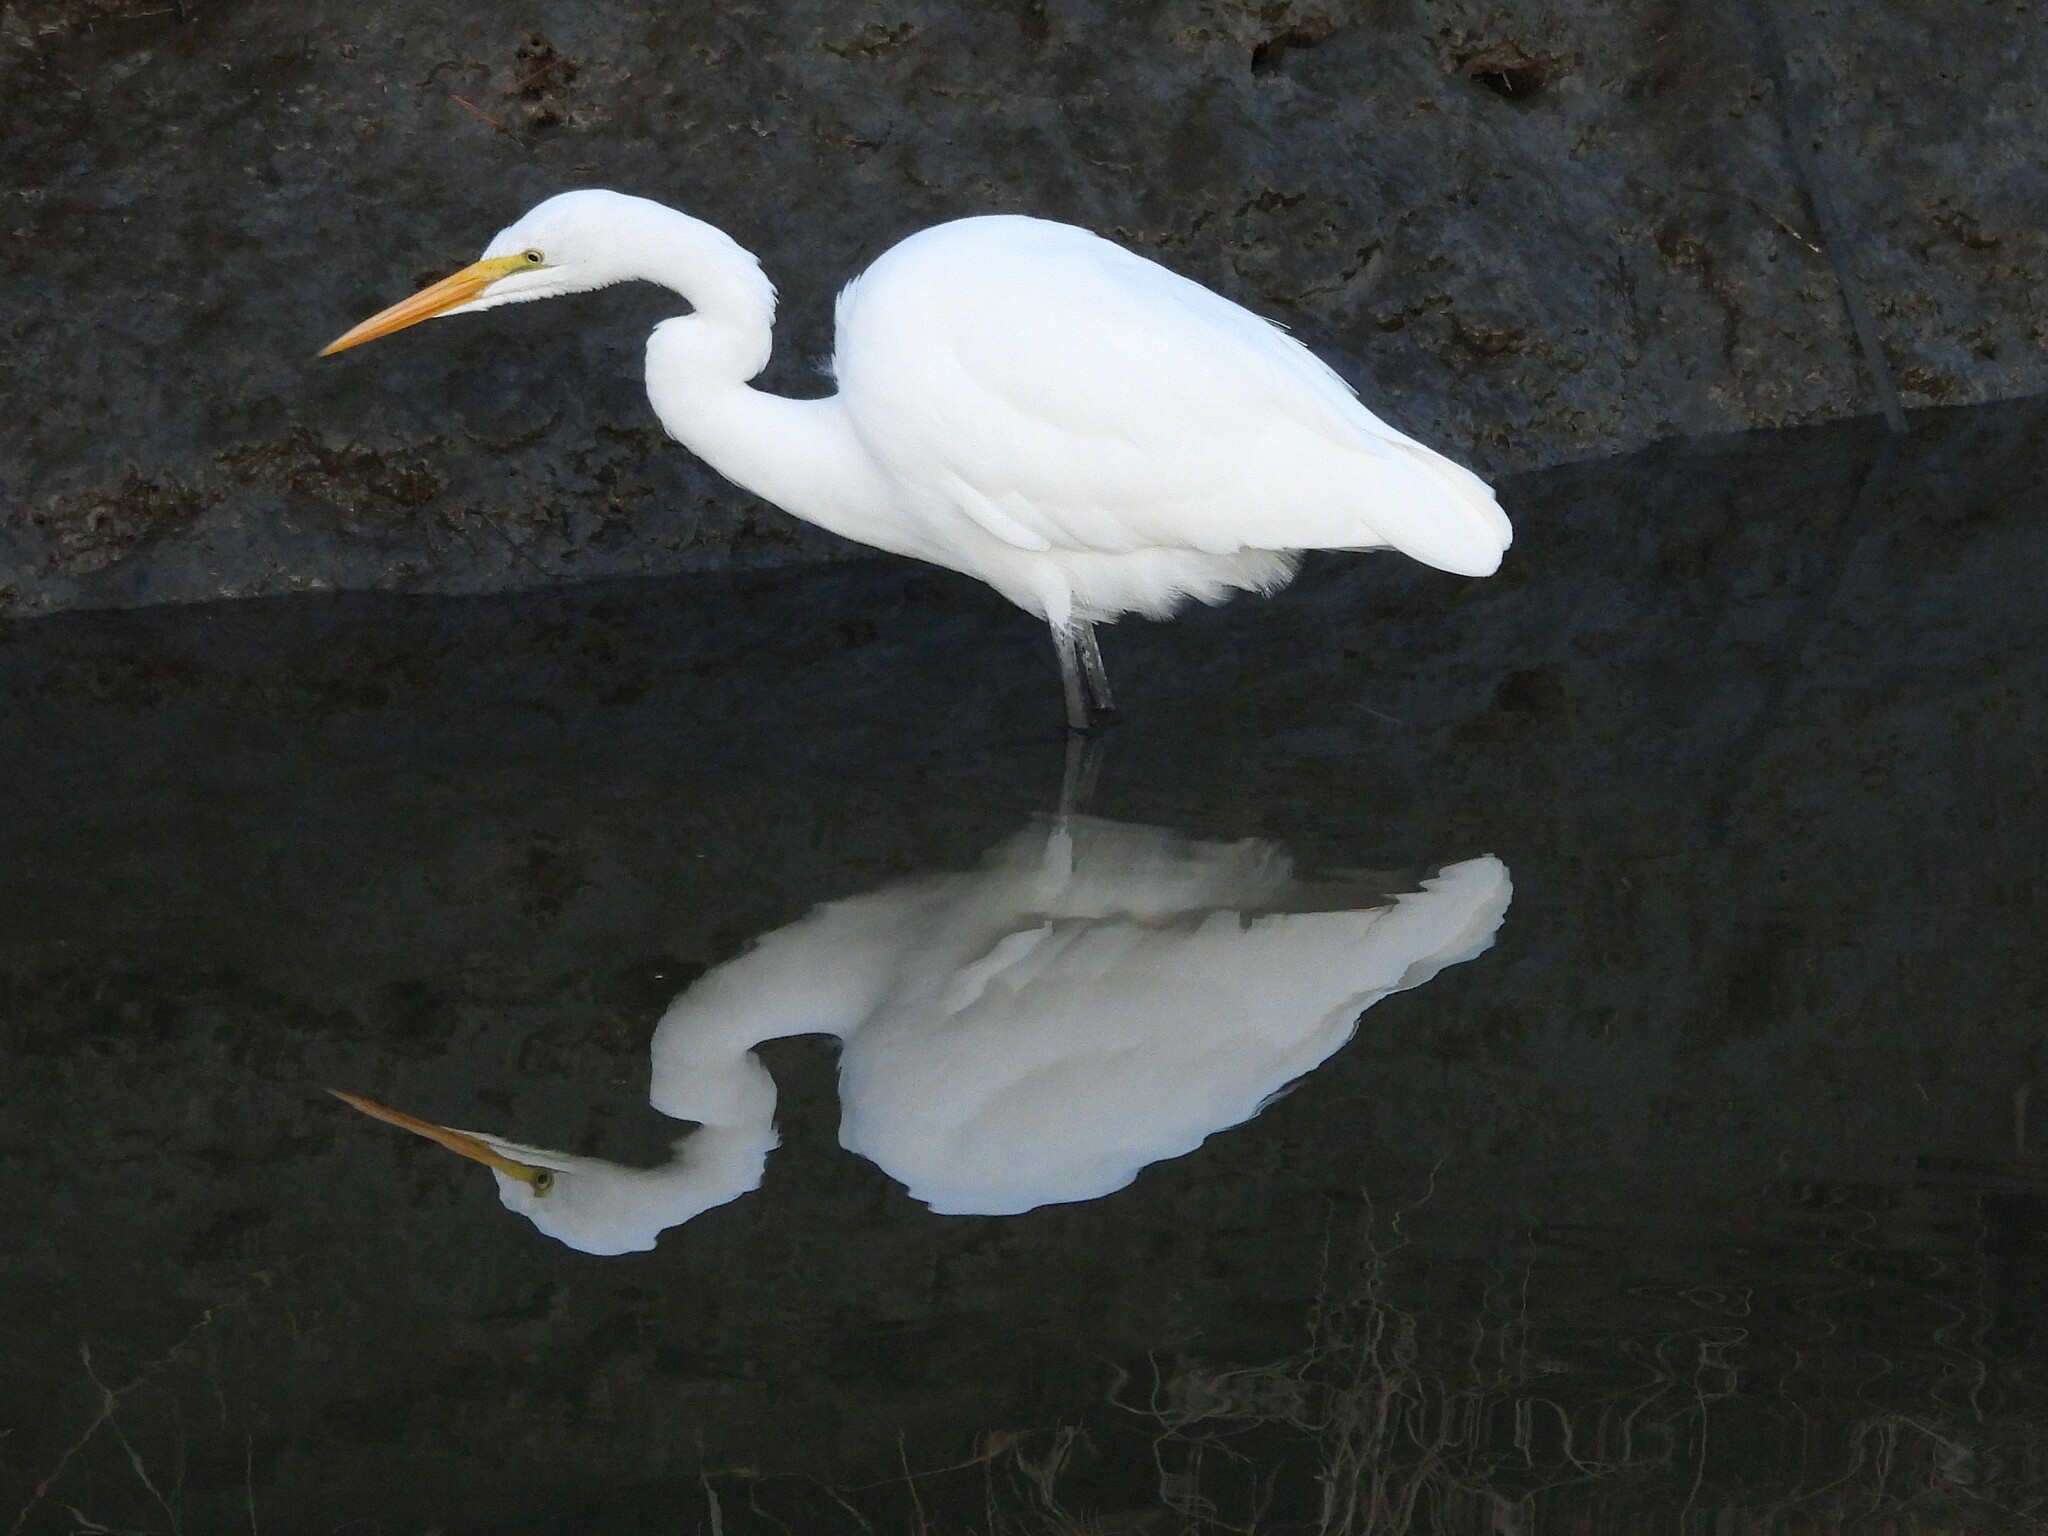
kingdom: Animalia
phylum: Chordata
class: Aves
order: Pelecaniformes
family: Ardeidae
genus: Ardea
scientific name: Ardea alba
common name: Great egret
